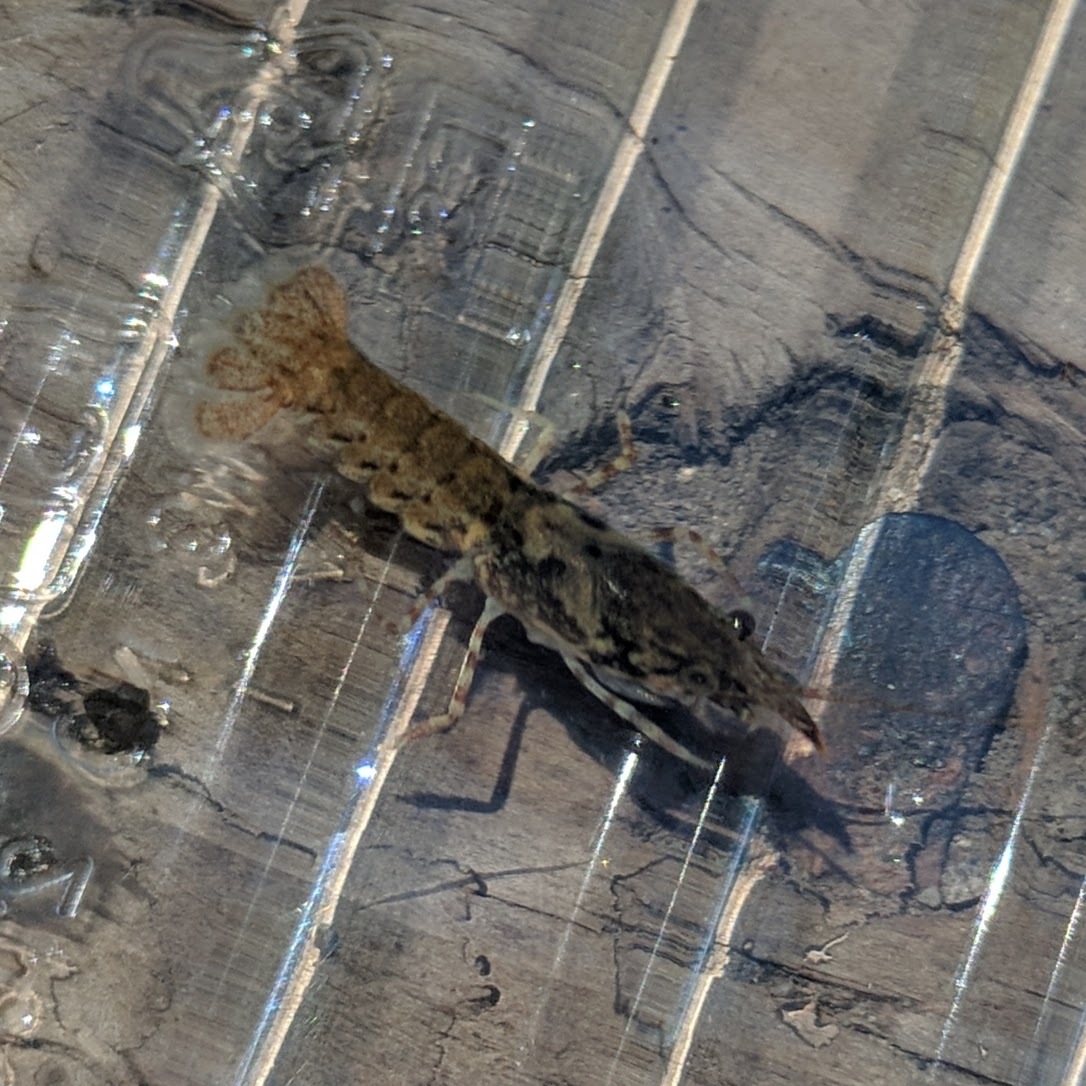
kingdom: Animalia
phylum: Arthropoda
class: Malacostraca
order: Decapoda
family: Cambaridae
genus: Faxonius
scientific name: Faxonius neglectus
